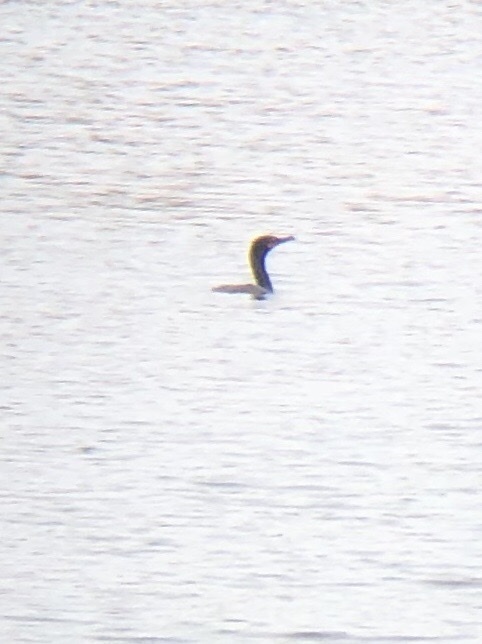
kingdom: Animalia
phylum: Chordata
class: Aves
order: Suliformes
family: Phalacrocoracidae
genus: Phalacrocorax
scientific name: Phalacrocorax auritus
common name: Double-crested cormorant
